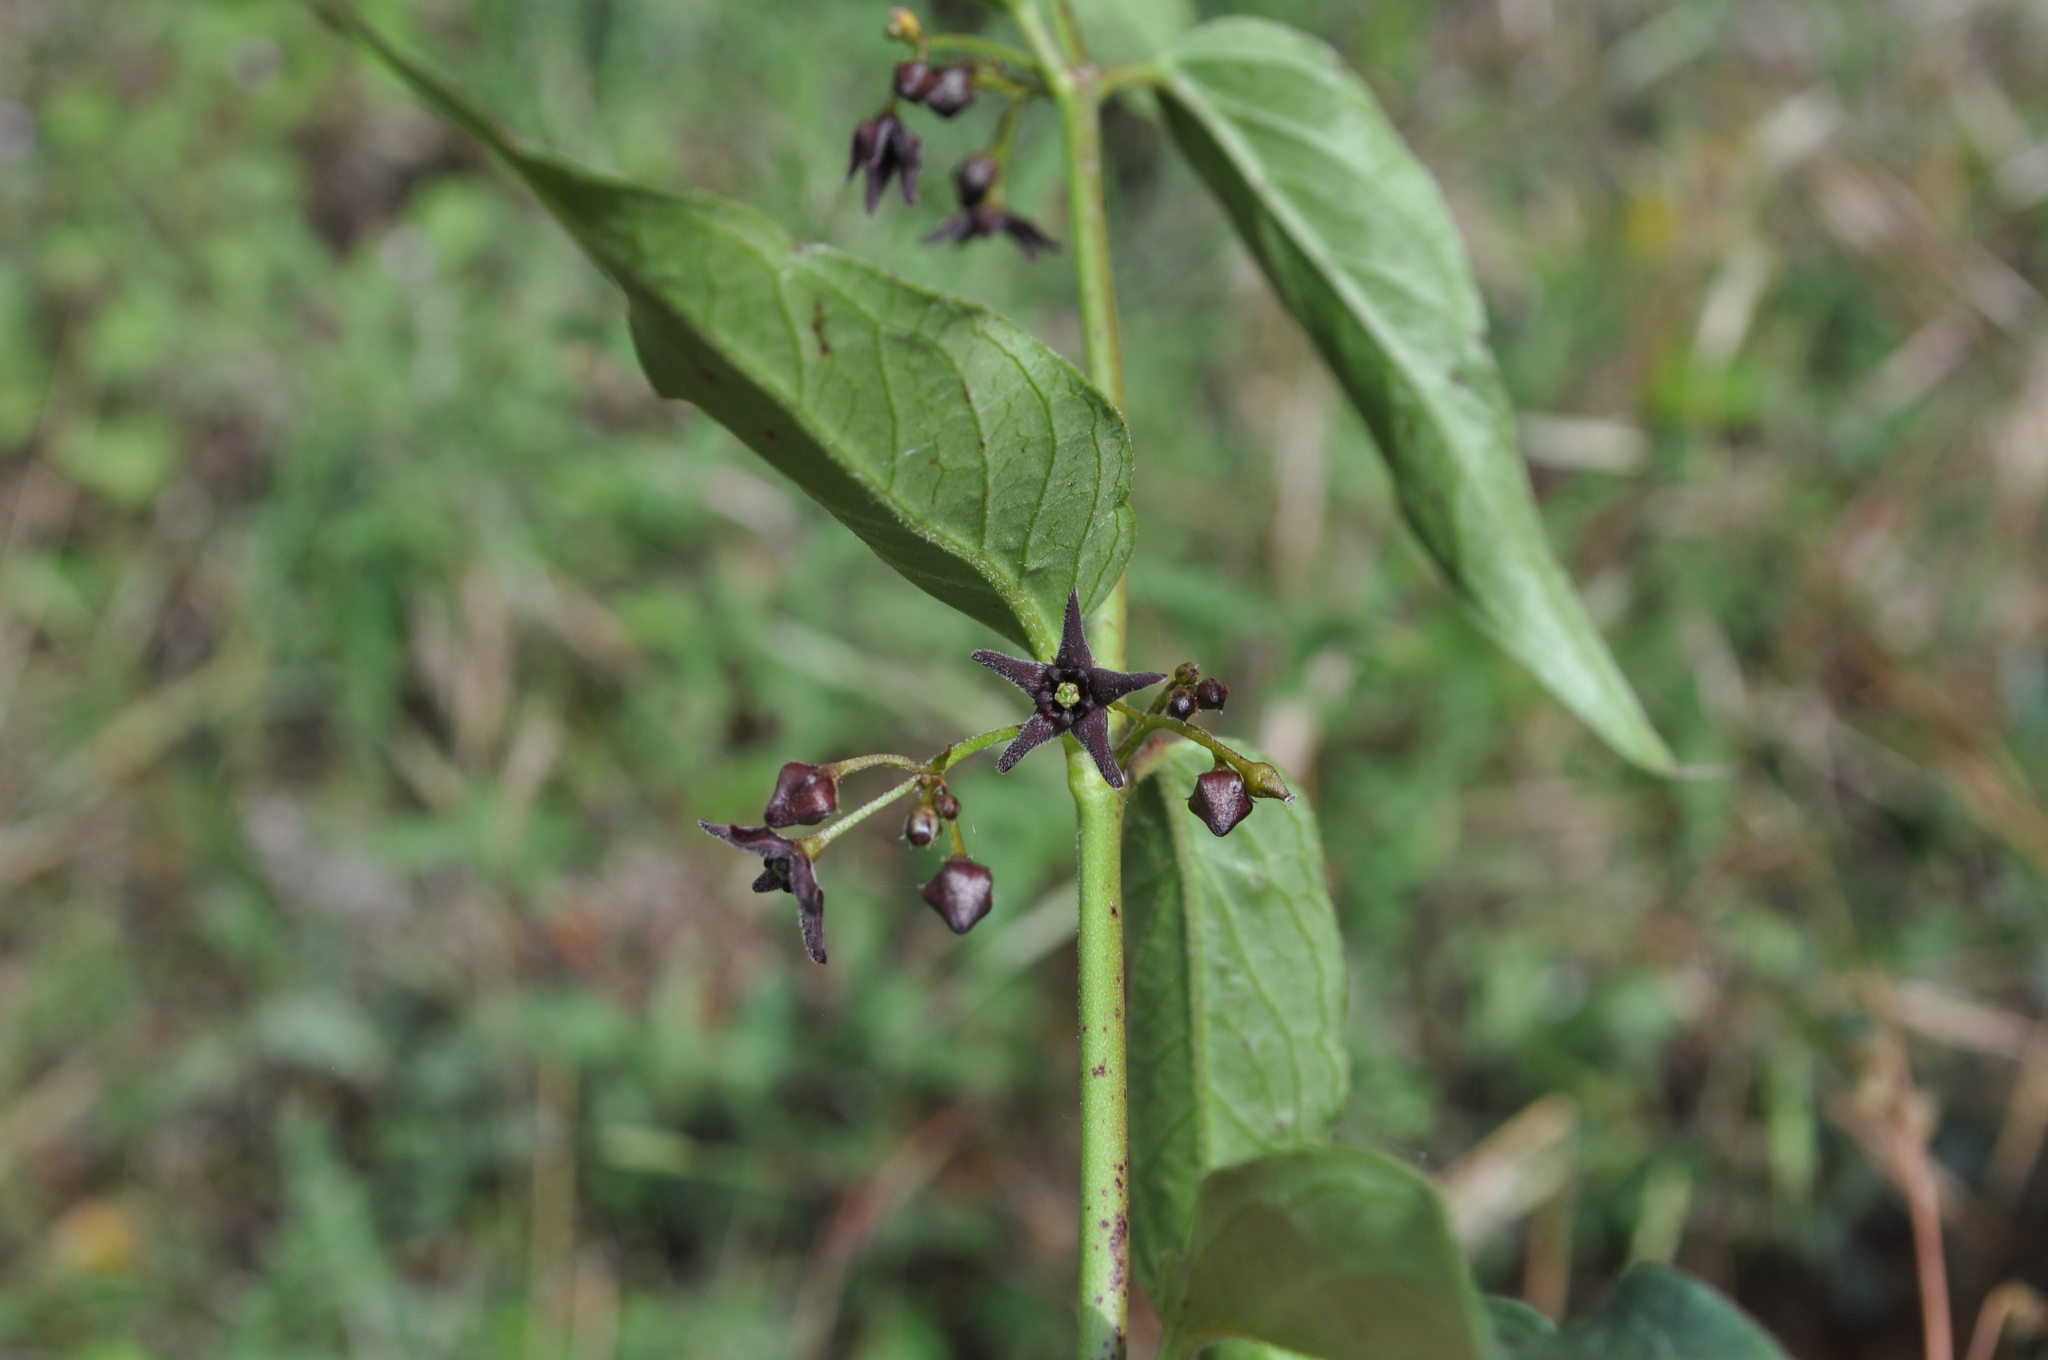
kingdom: Plantae
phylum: Tracheophyta
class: Magnoliopsida
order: Gentianales
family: Apocynaceae
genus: Vincetoxicum
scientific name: Vincetoxicum nigrum
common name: Black swallow-wort
